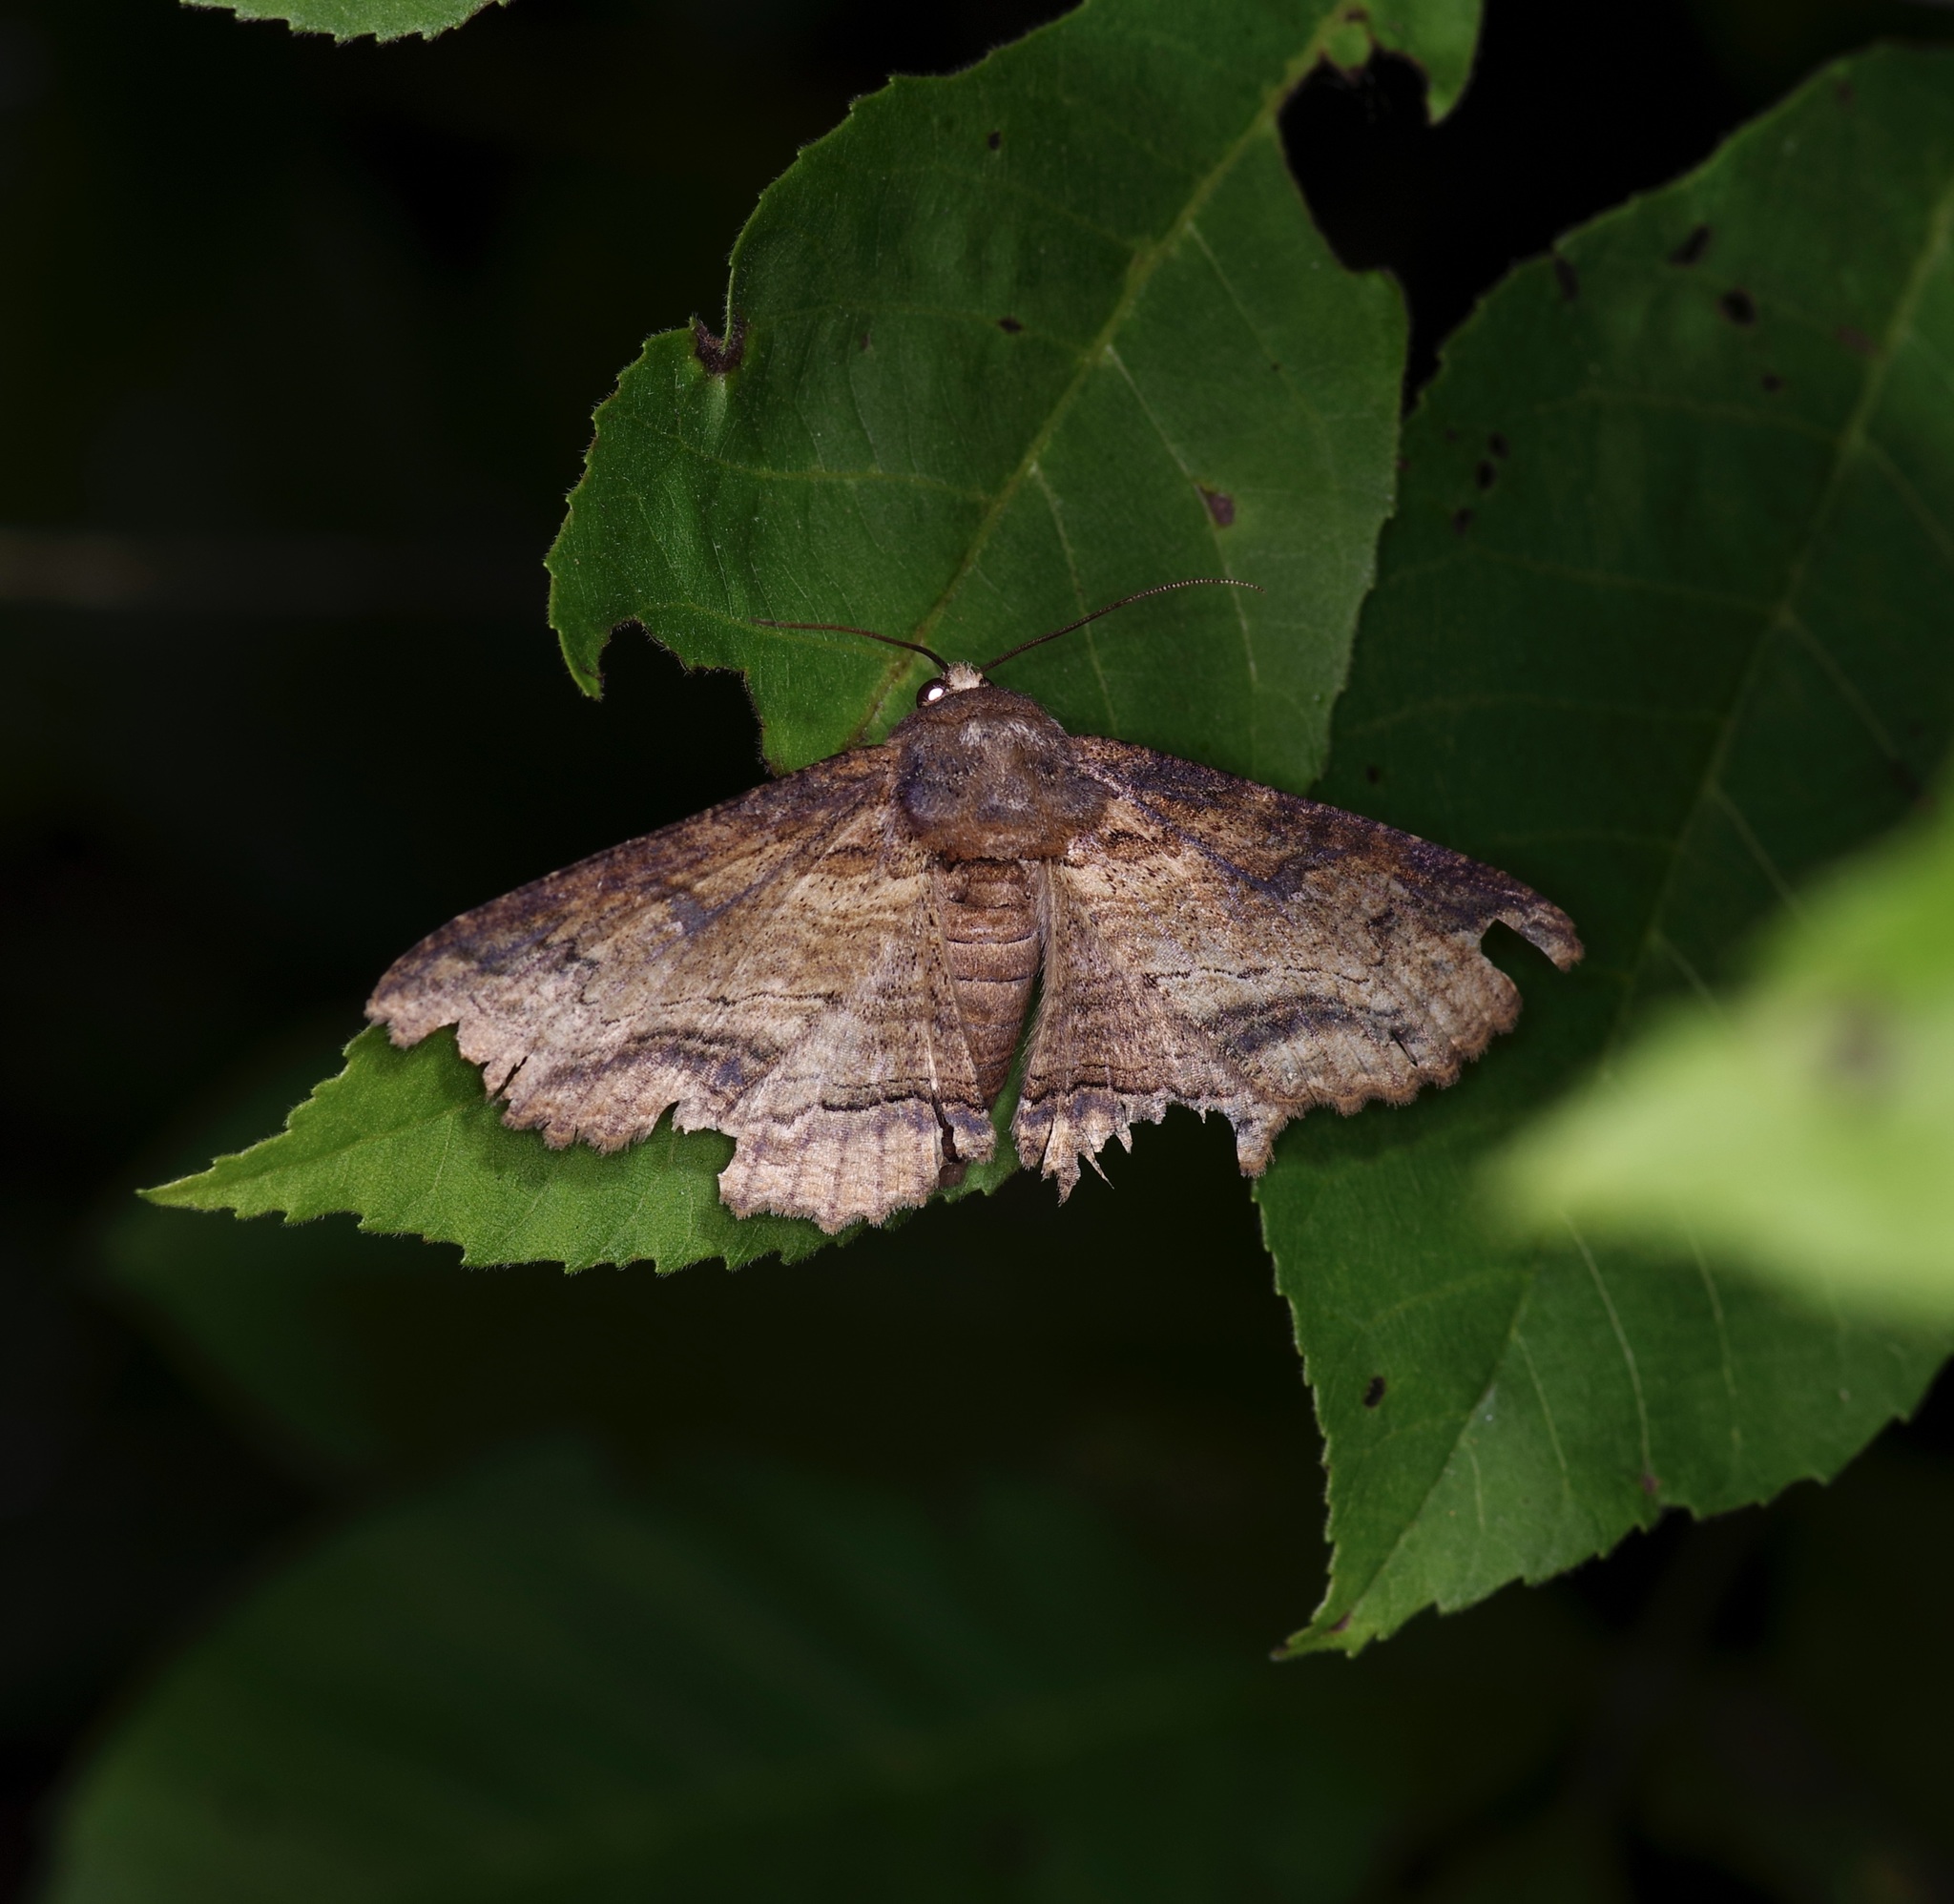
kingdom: Animalia
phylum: Arthropoda
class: Insecta
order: Lepidoptera
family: Erebidae
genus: Zale
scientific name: Zale lunata
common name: Lunate zale moth
